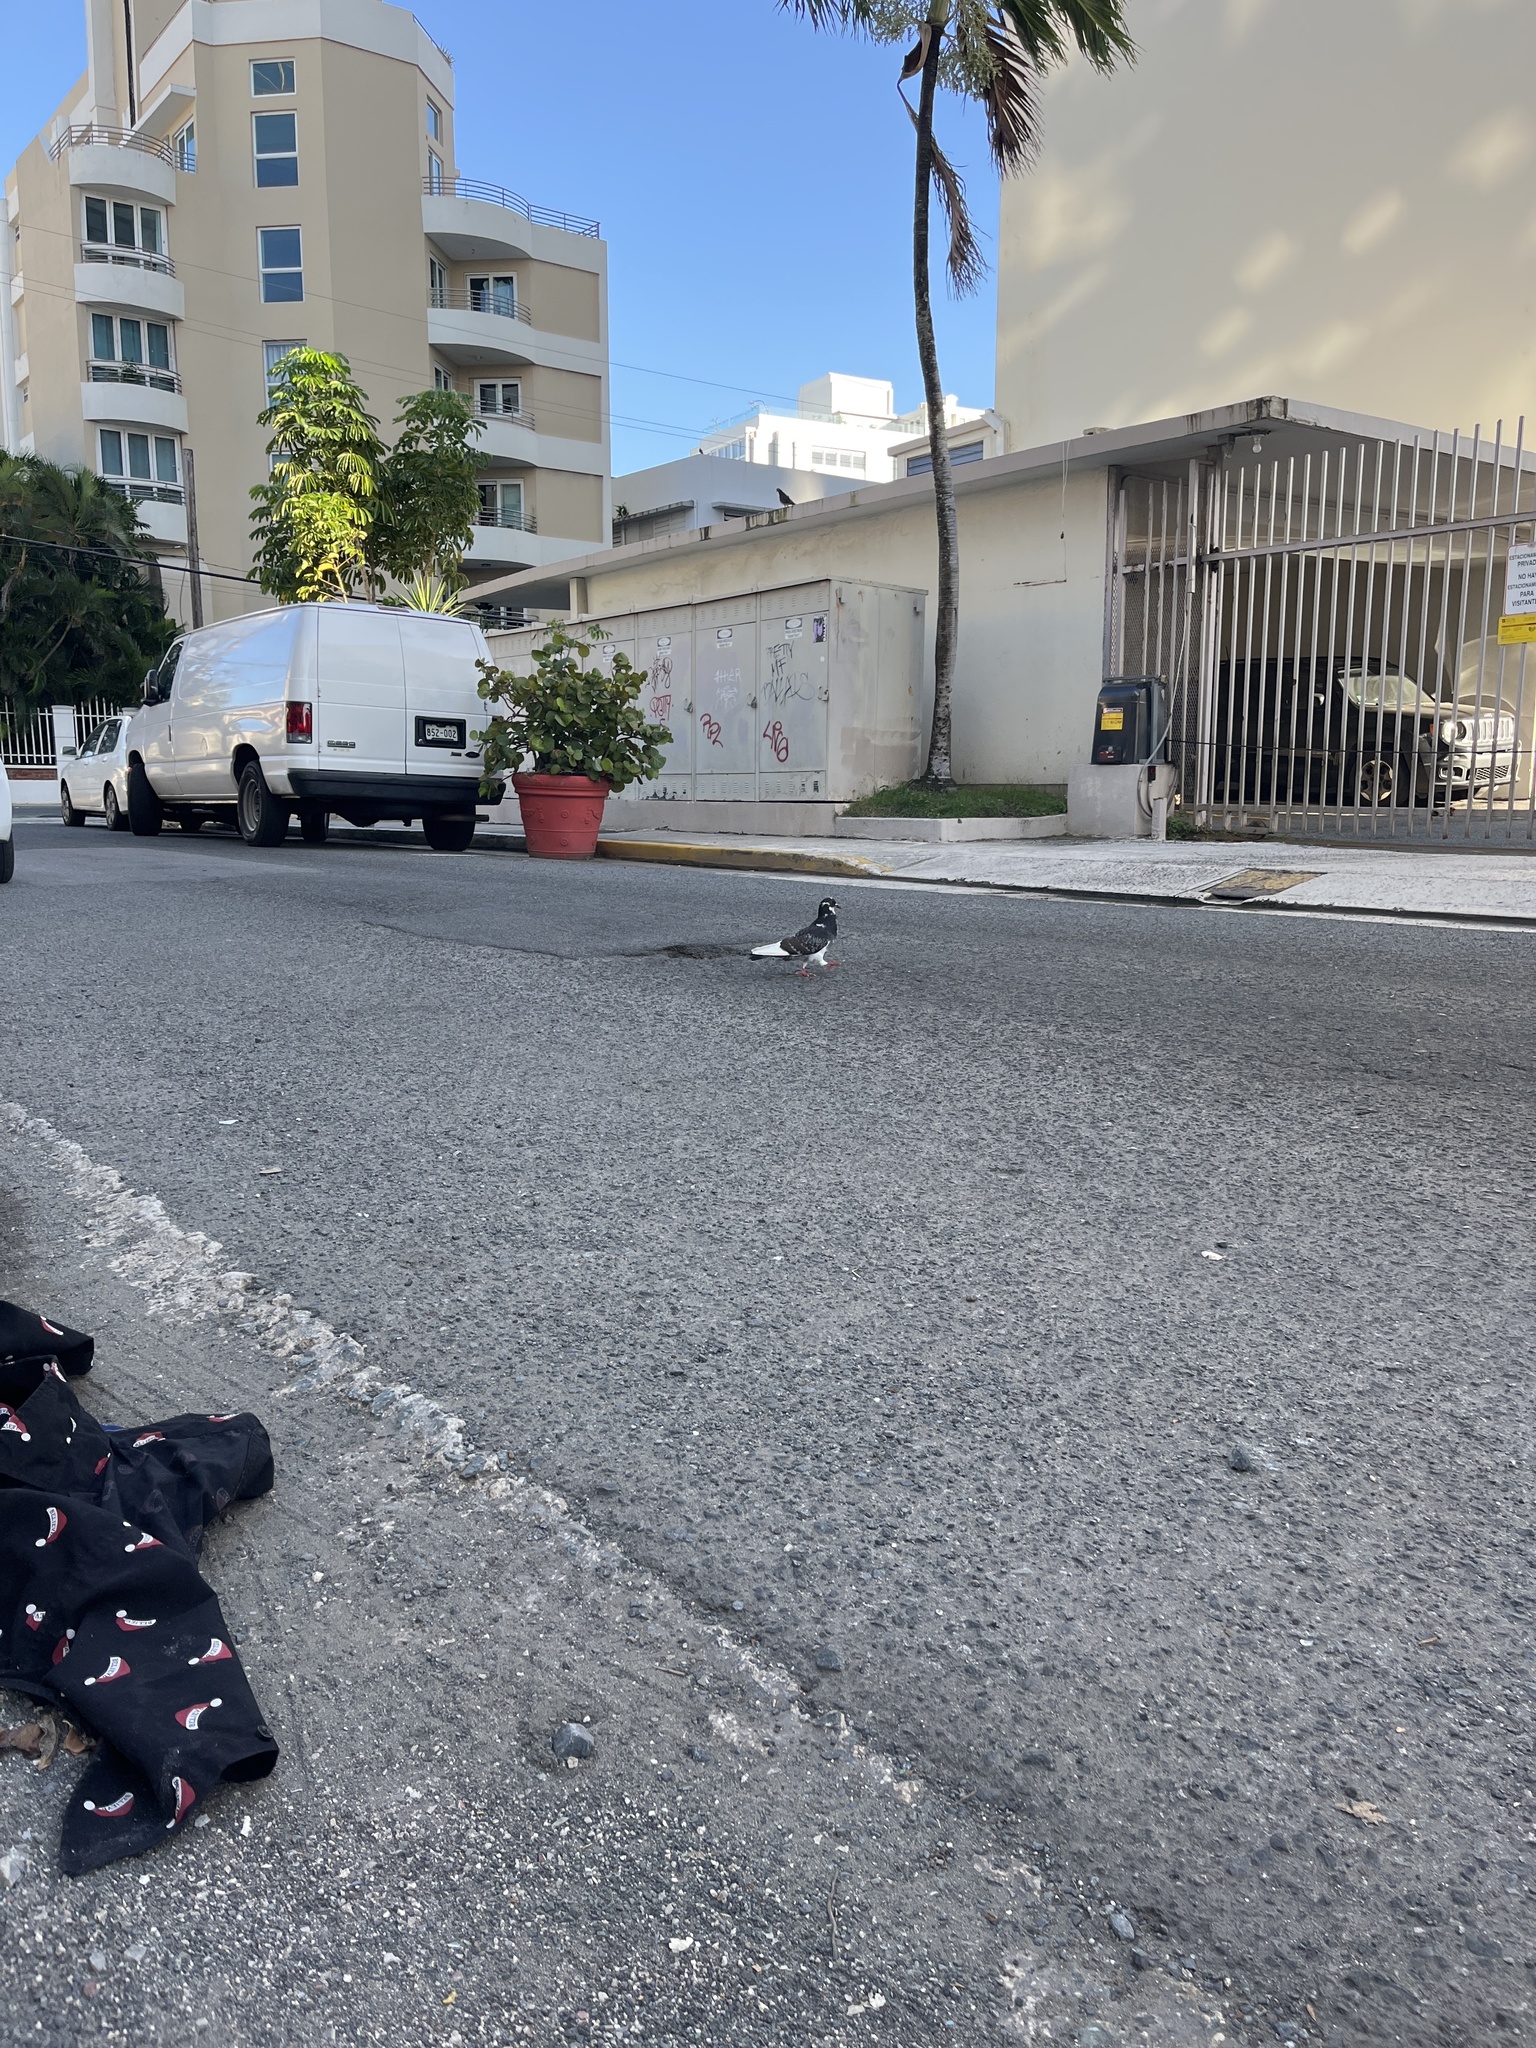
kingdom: Animalia
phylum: Chordata
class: Aves
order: Columbiformes
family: Columbidae
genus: Columba
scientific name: Columba livia
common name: Rock pigeon
